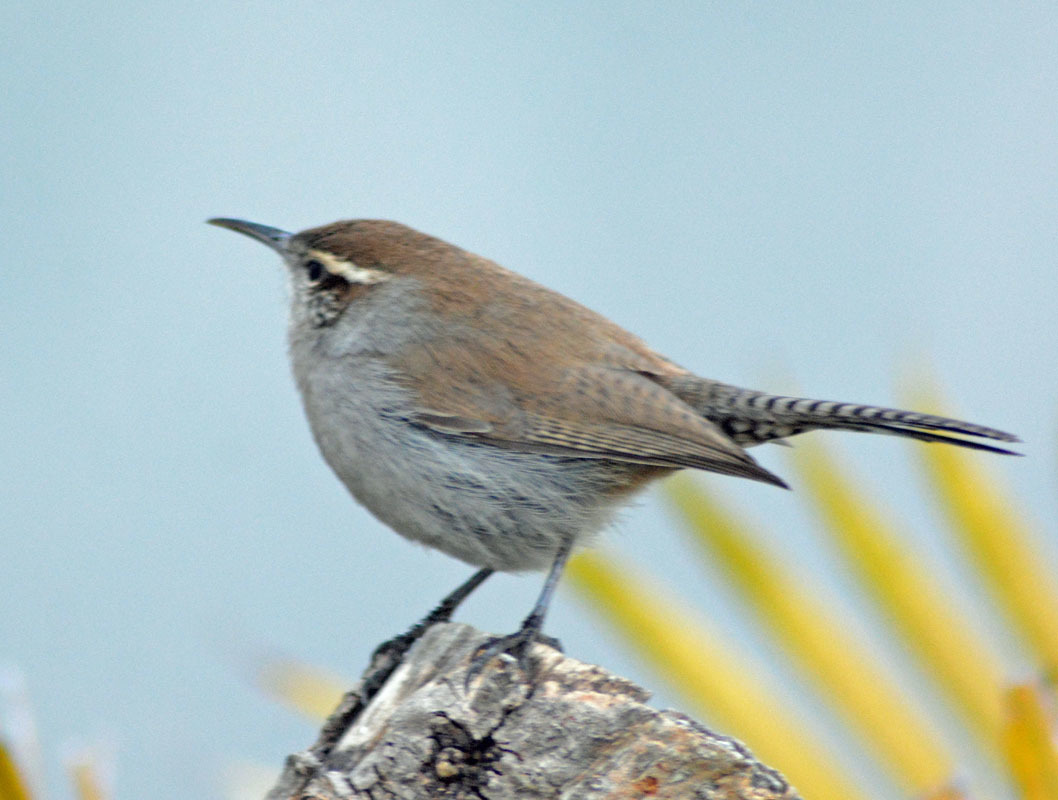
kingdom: Animalia
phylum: Chordata
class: Aves
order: Passeriformes
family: Troglodytidae
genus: Thryomanes
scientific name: Thryomanes bewickii
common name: Bewick's wren
